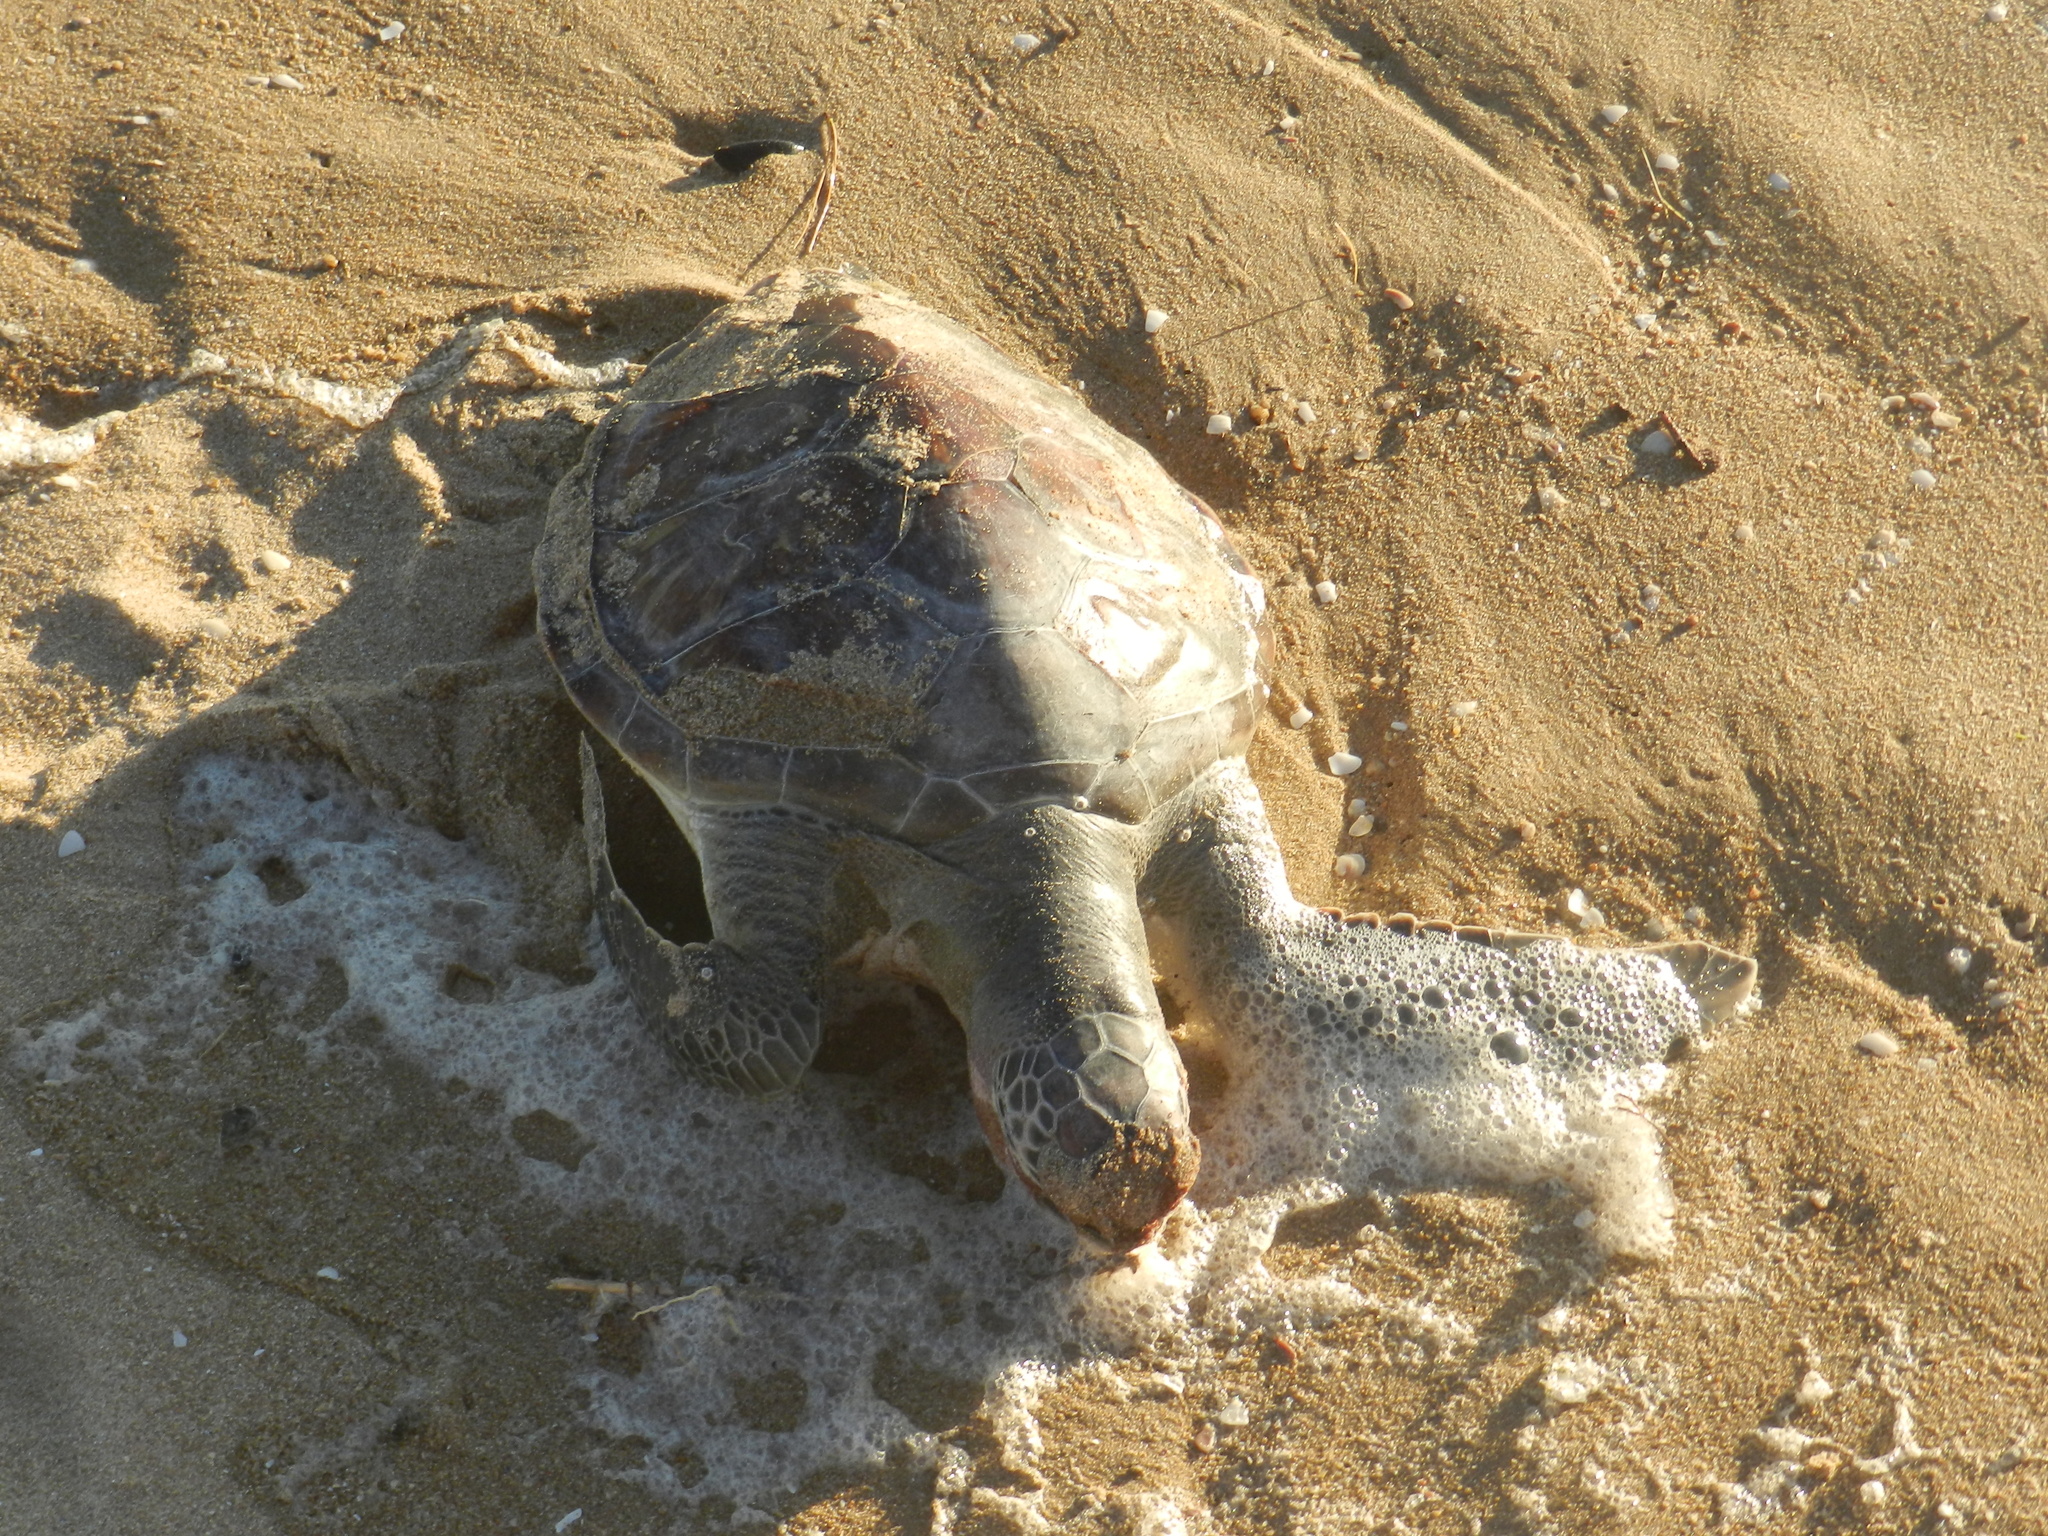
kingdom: Animalia
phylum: Chordata
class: Testudines
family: Cheloniidae
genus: Chelonia
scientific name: Chelonia mydas
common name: Green turtle
